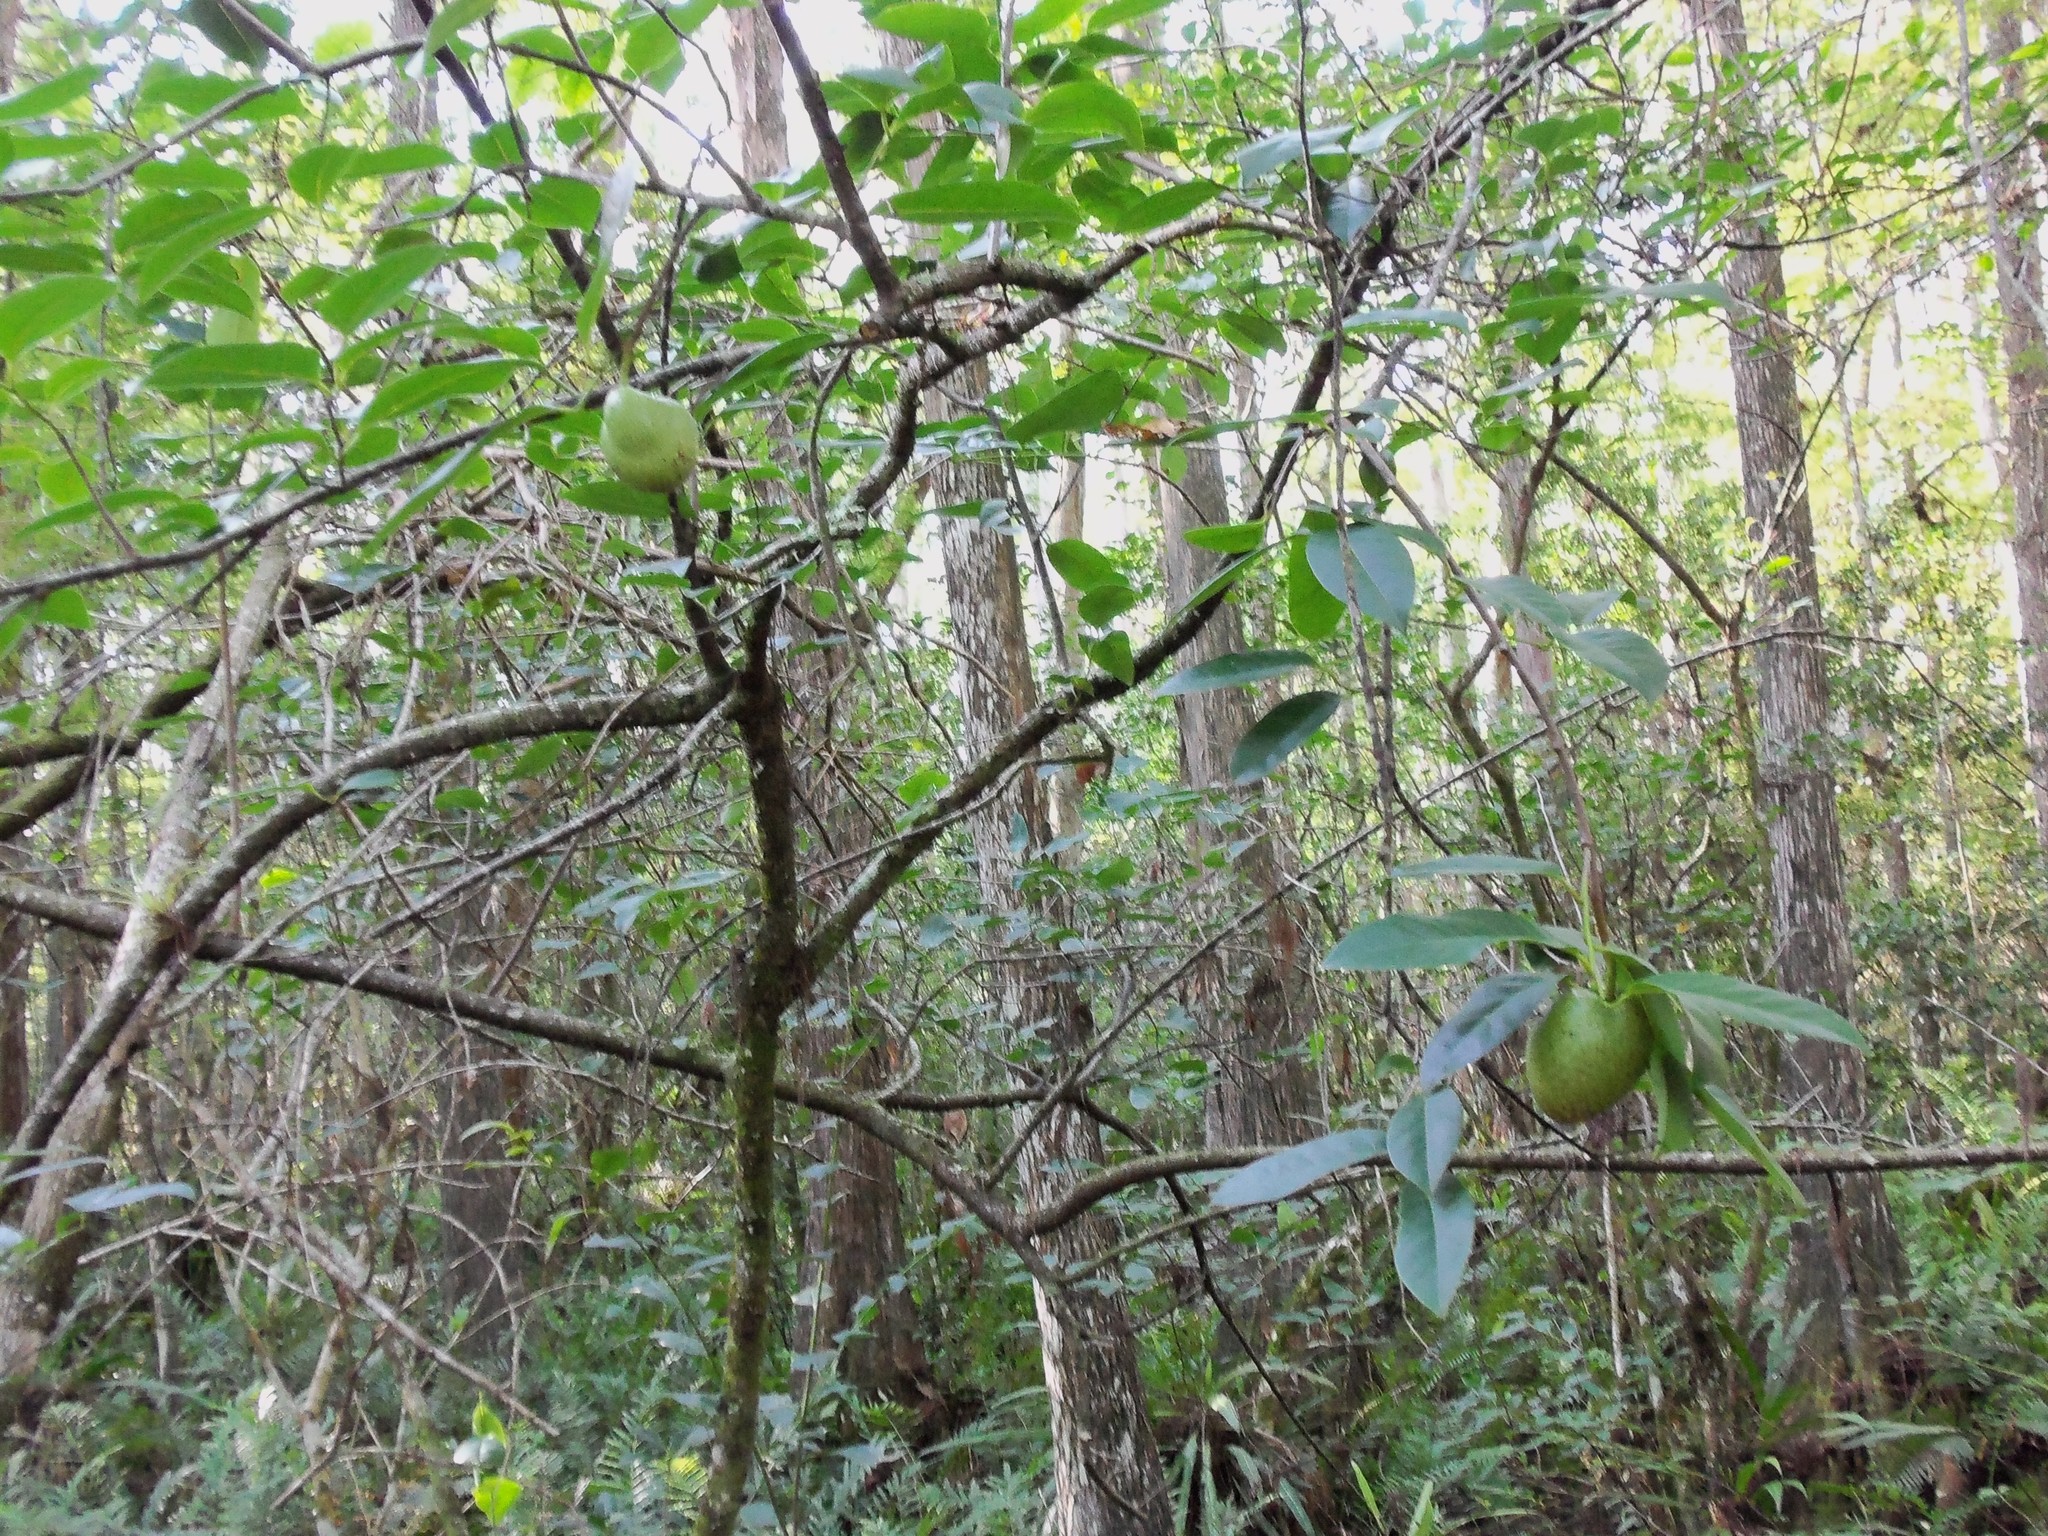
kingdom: Plantae
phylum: Tracheophyta
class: Magnoliopsida
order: Magnoliales
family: Annonaceae
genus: Annona
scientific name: Annona glabra
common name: Monkey apple
